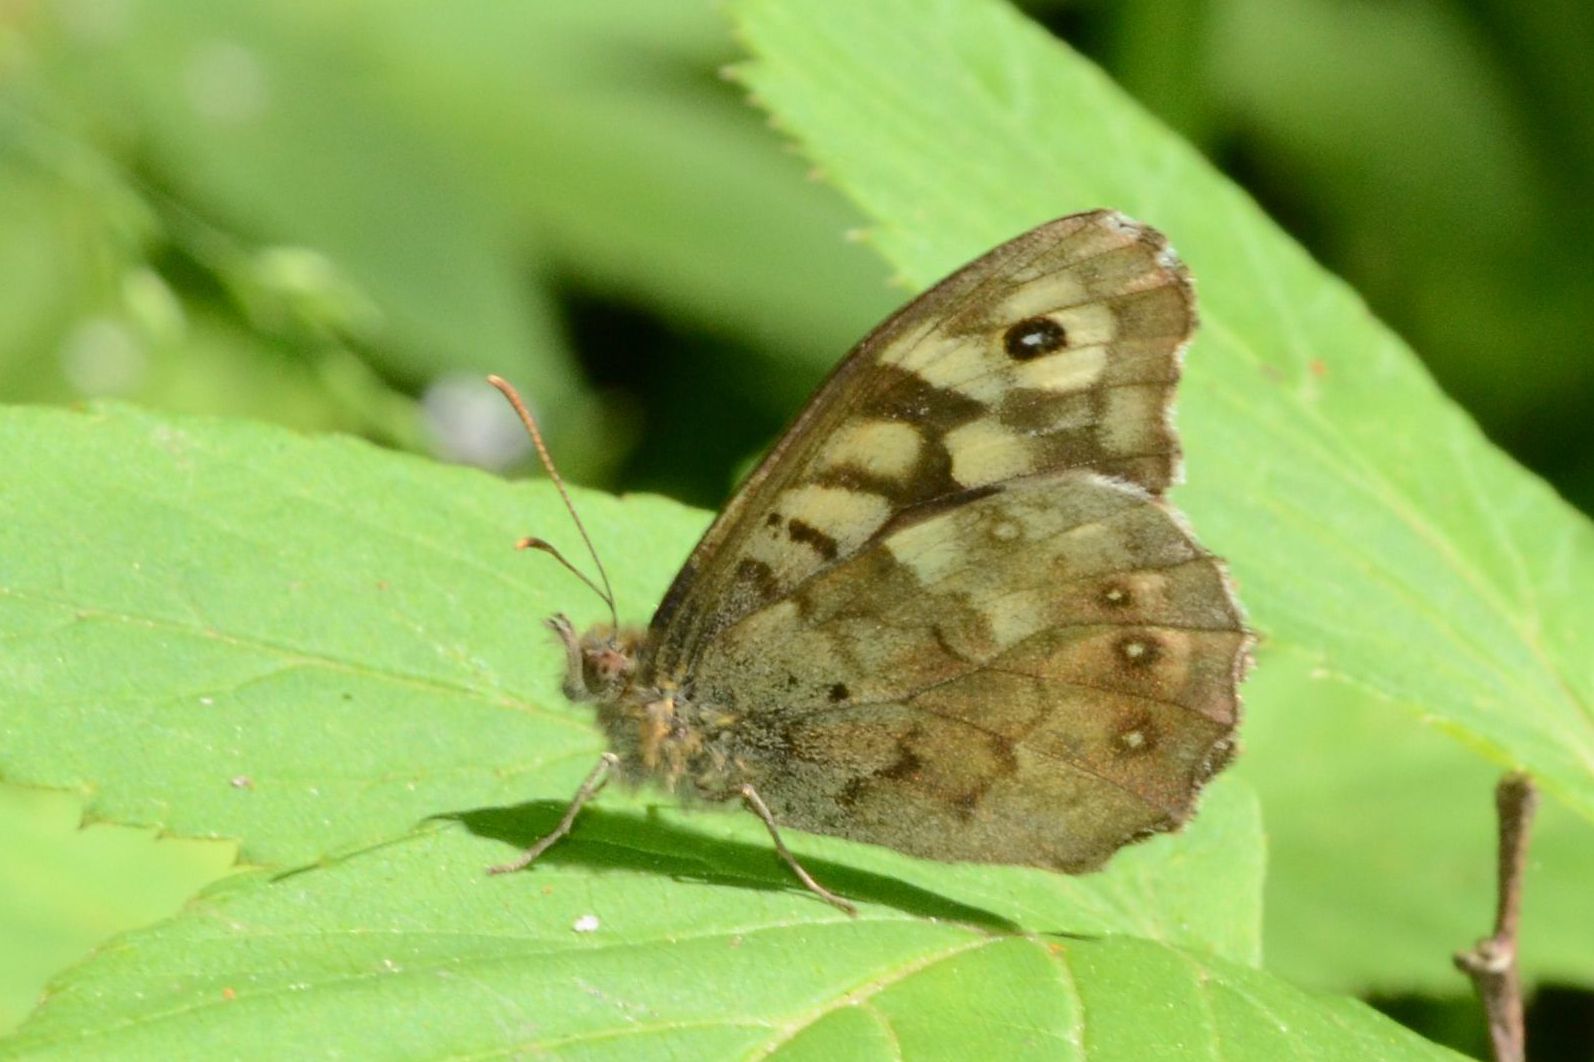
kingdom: Animalia
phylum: Arthropoda
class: Insecta
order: Lepidoptera
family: Nymphalidae
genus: Pararge
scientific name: Pararge aegeria
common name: Speckled wood
